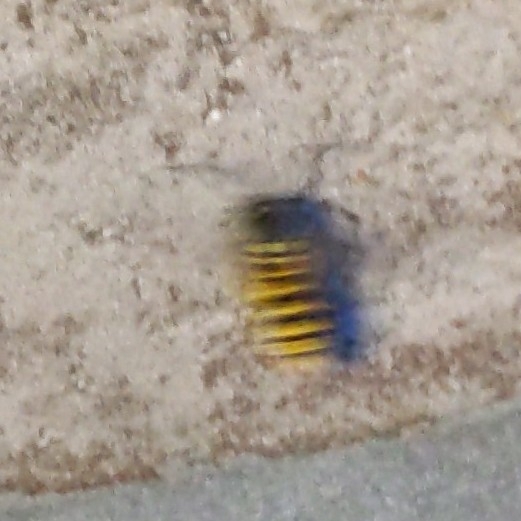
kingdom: Animalia
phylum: Arthropoda
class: Insecta
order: Hymenoptera
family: Vespidae
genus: Vespula
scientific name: Vespula
